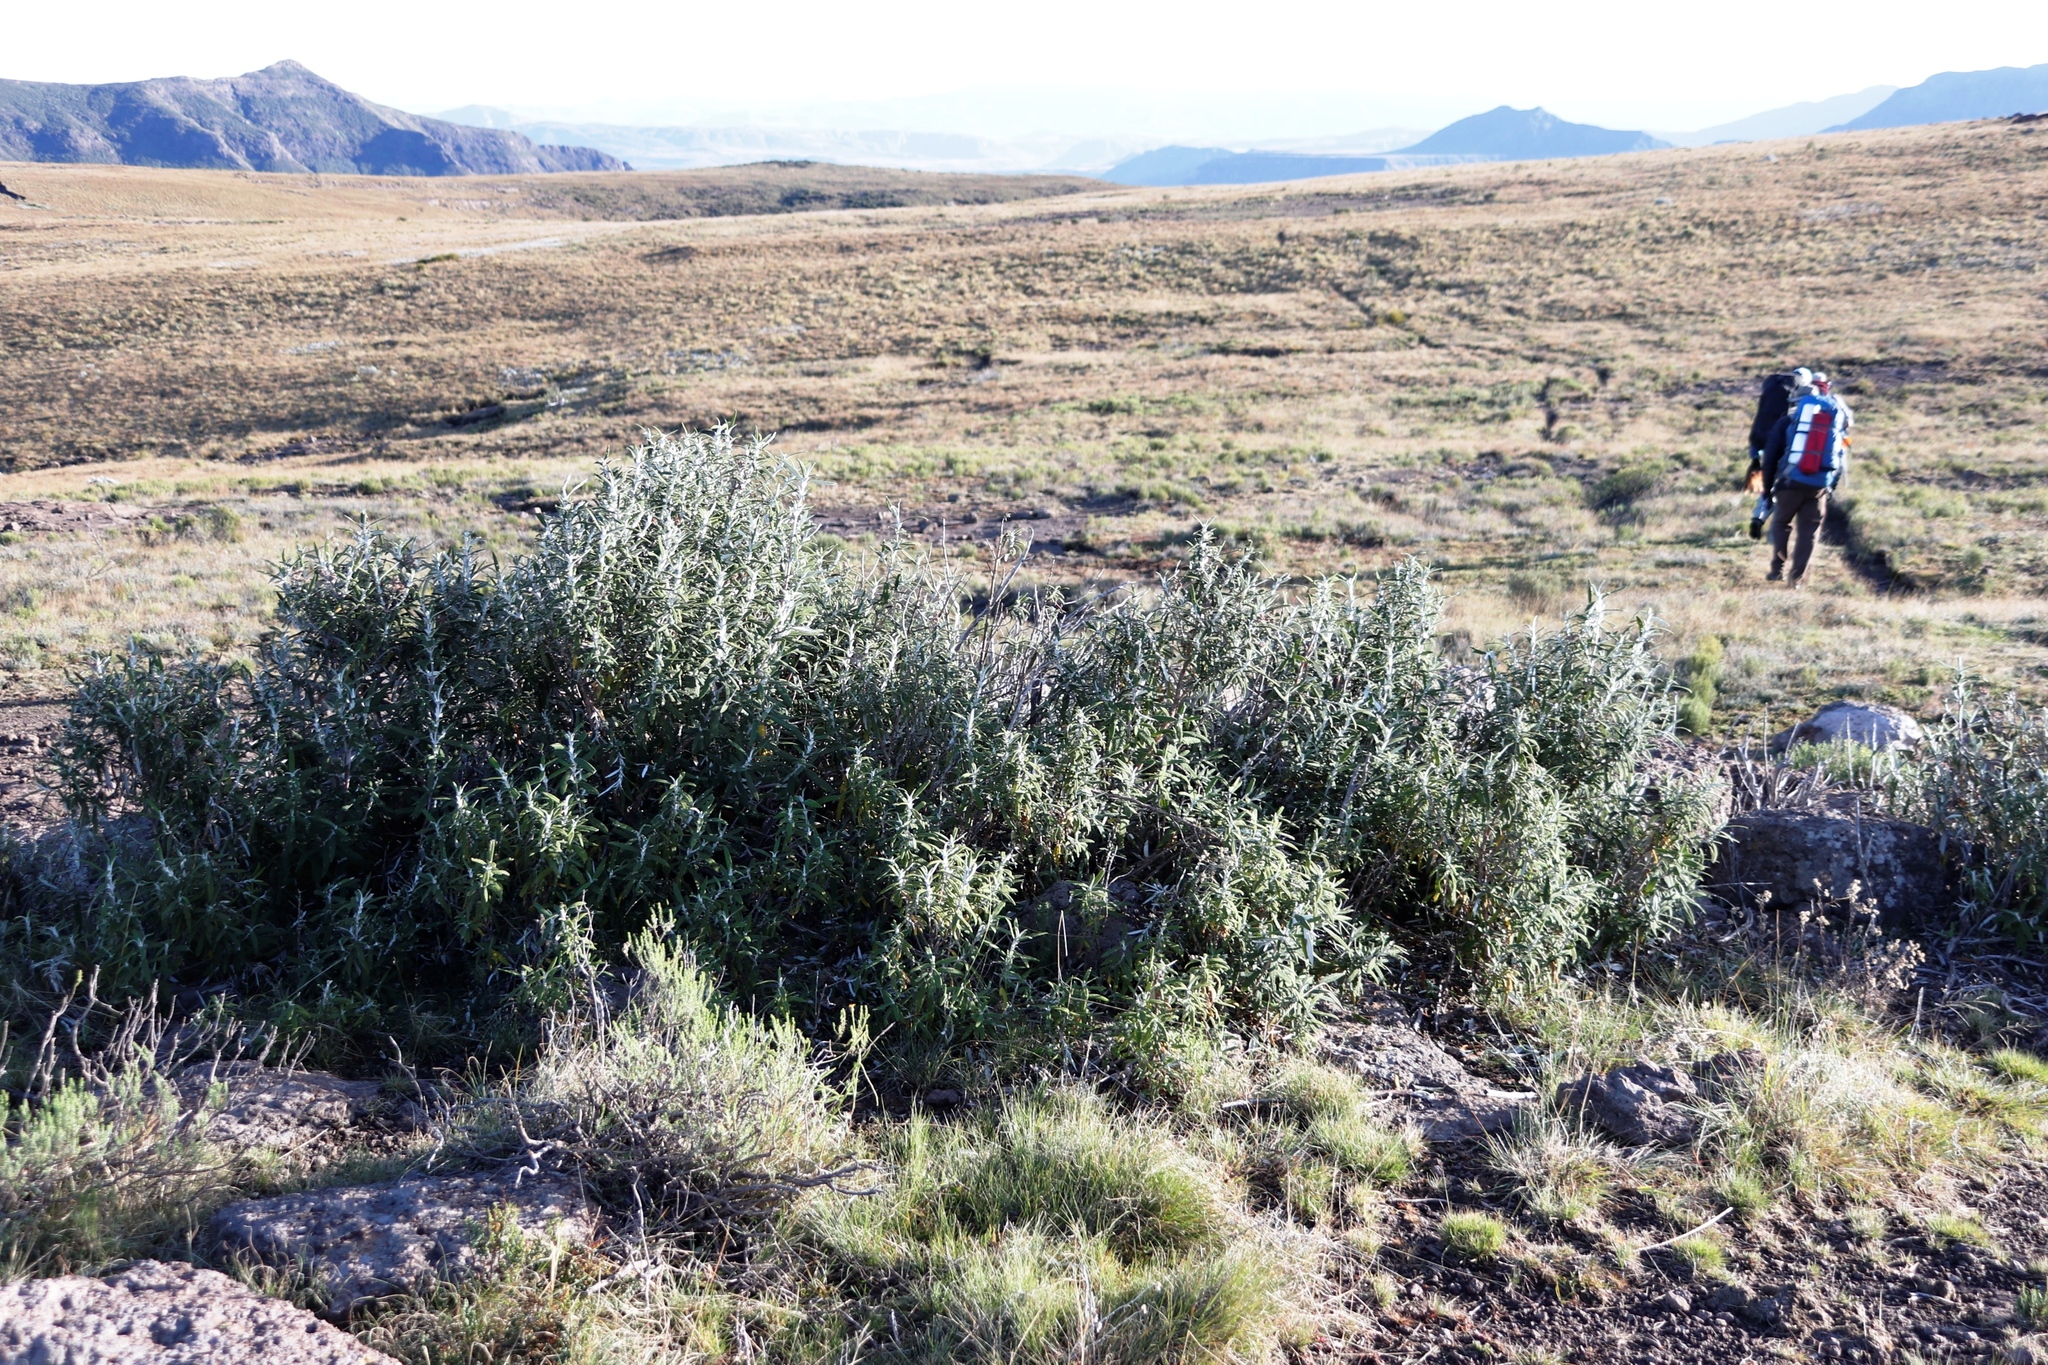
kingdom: Plantae
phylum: Tracheophyta
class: Magnoliopsida
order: Lamiales
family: Scrophulariaceae
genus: Buddleja
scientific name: Buddleja loricata
